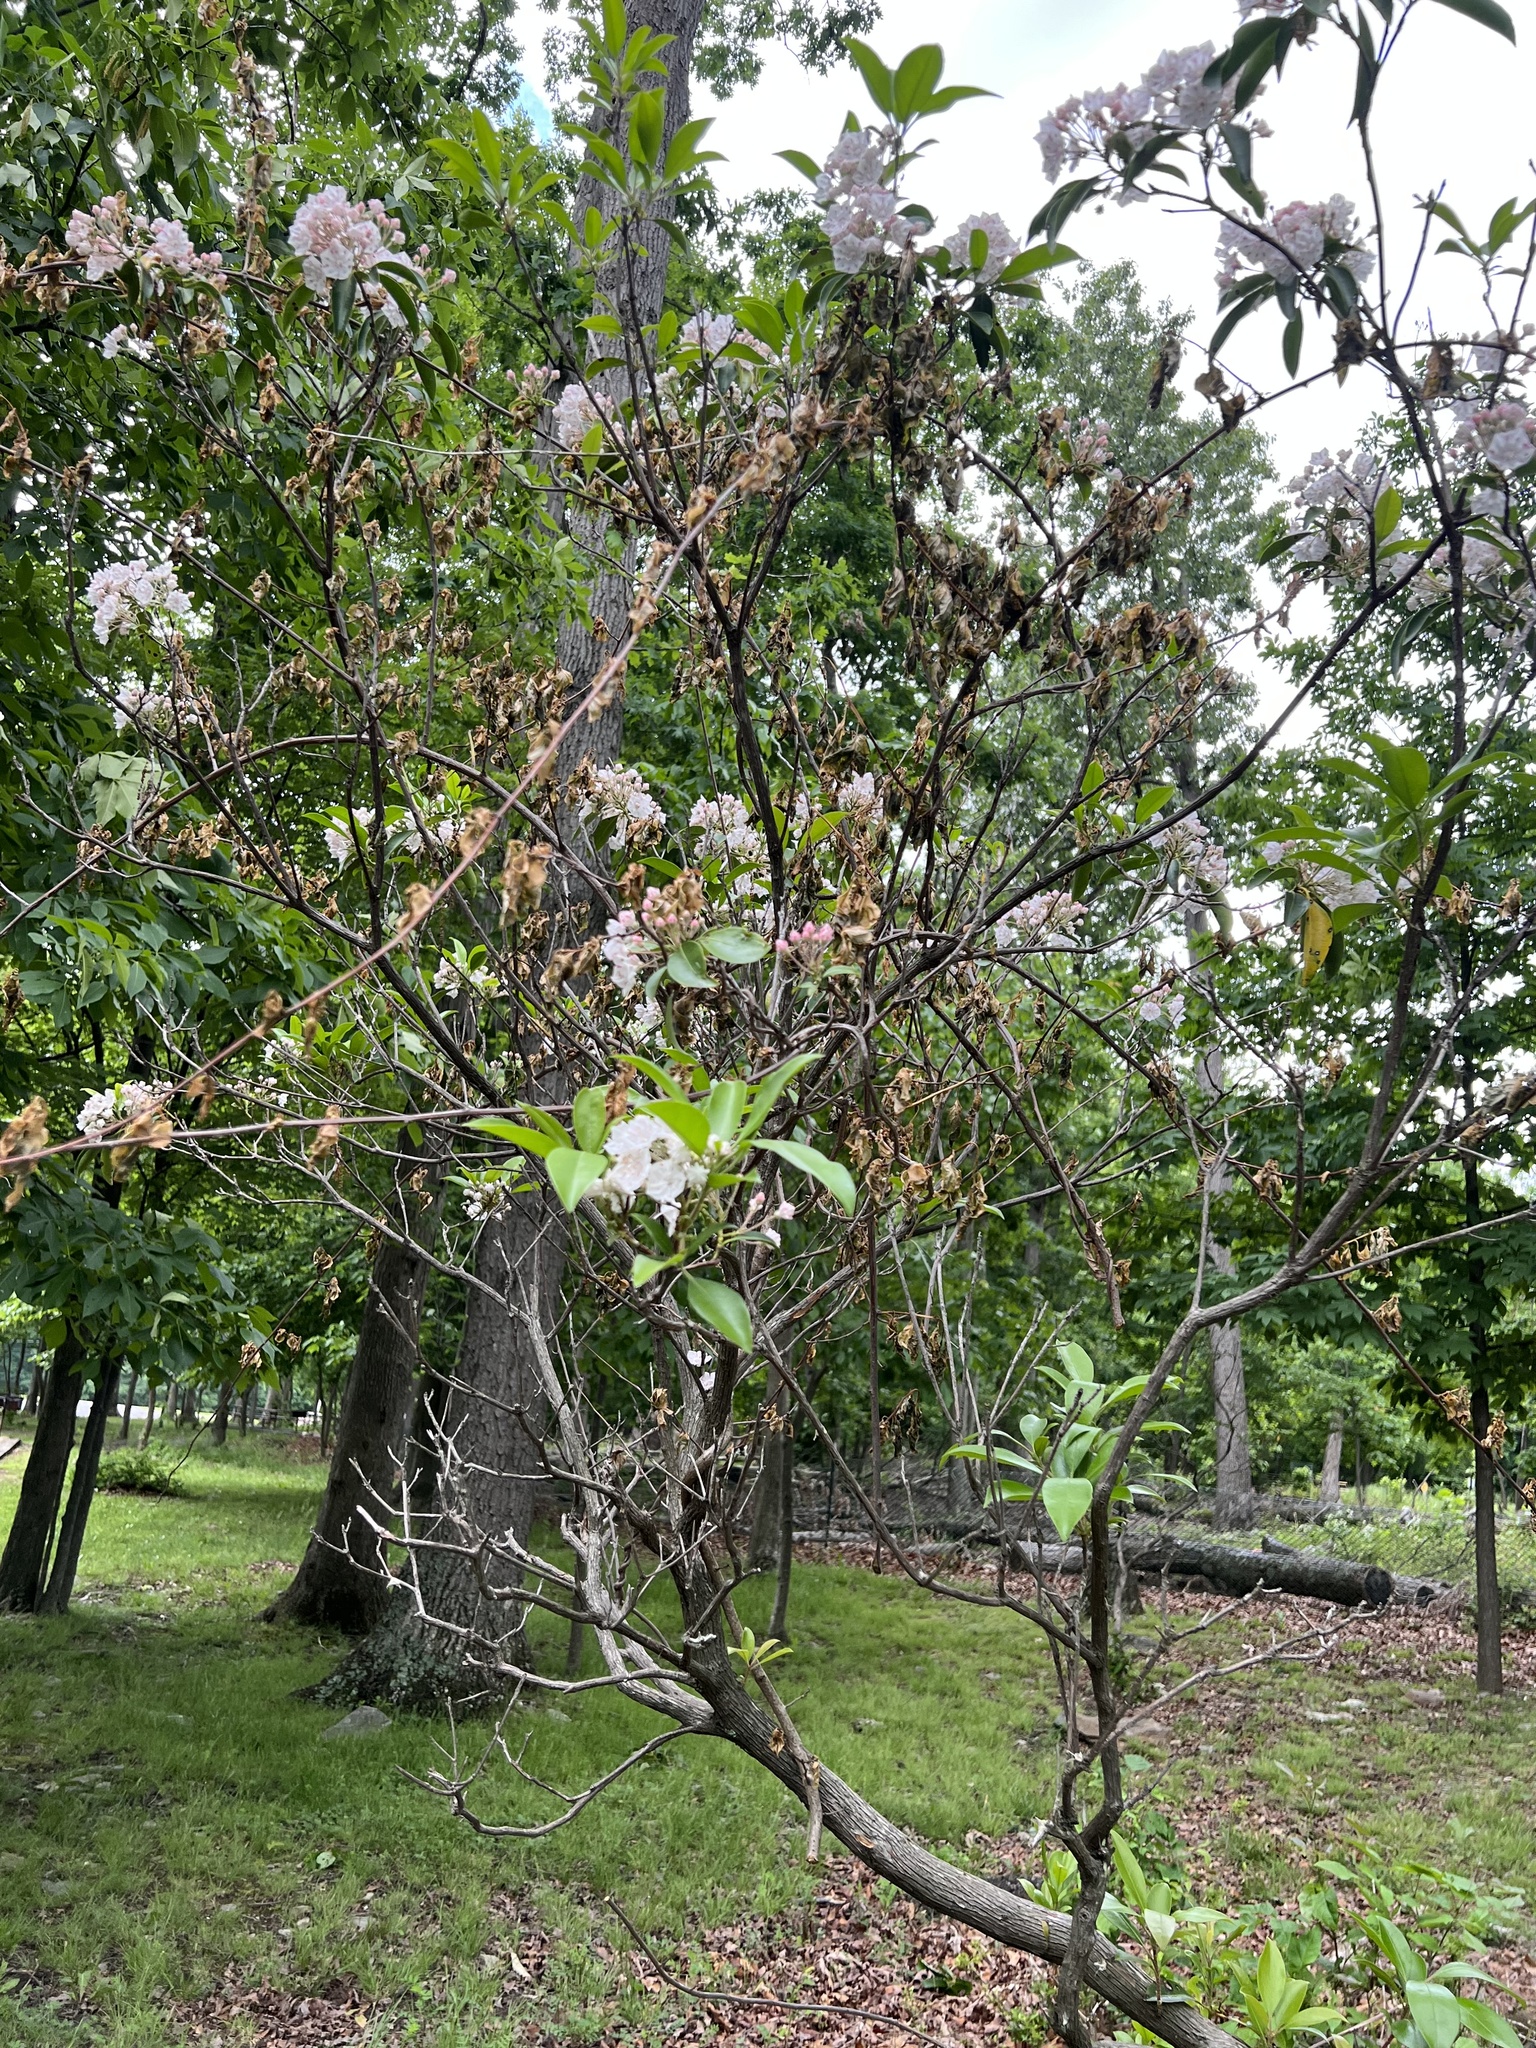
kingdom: Plantae
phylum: Tracheophyta
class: Magnoliopsida
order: Ericales
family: Ericaceae
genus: Kalmia
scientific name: Kalmia latifolia
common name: Mountain-laurel
